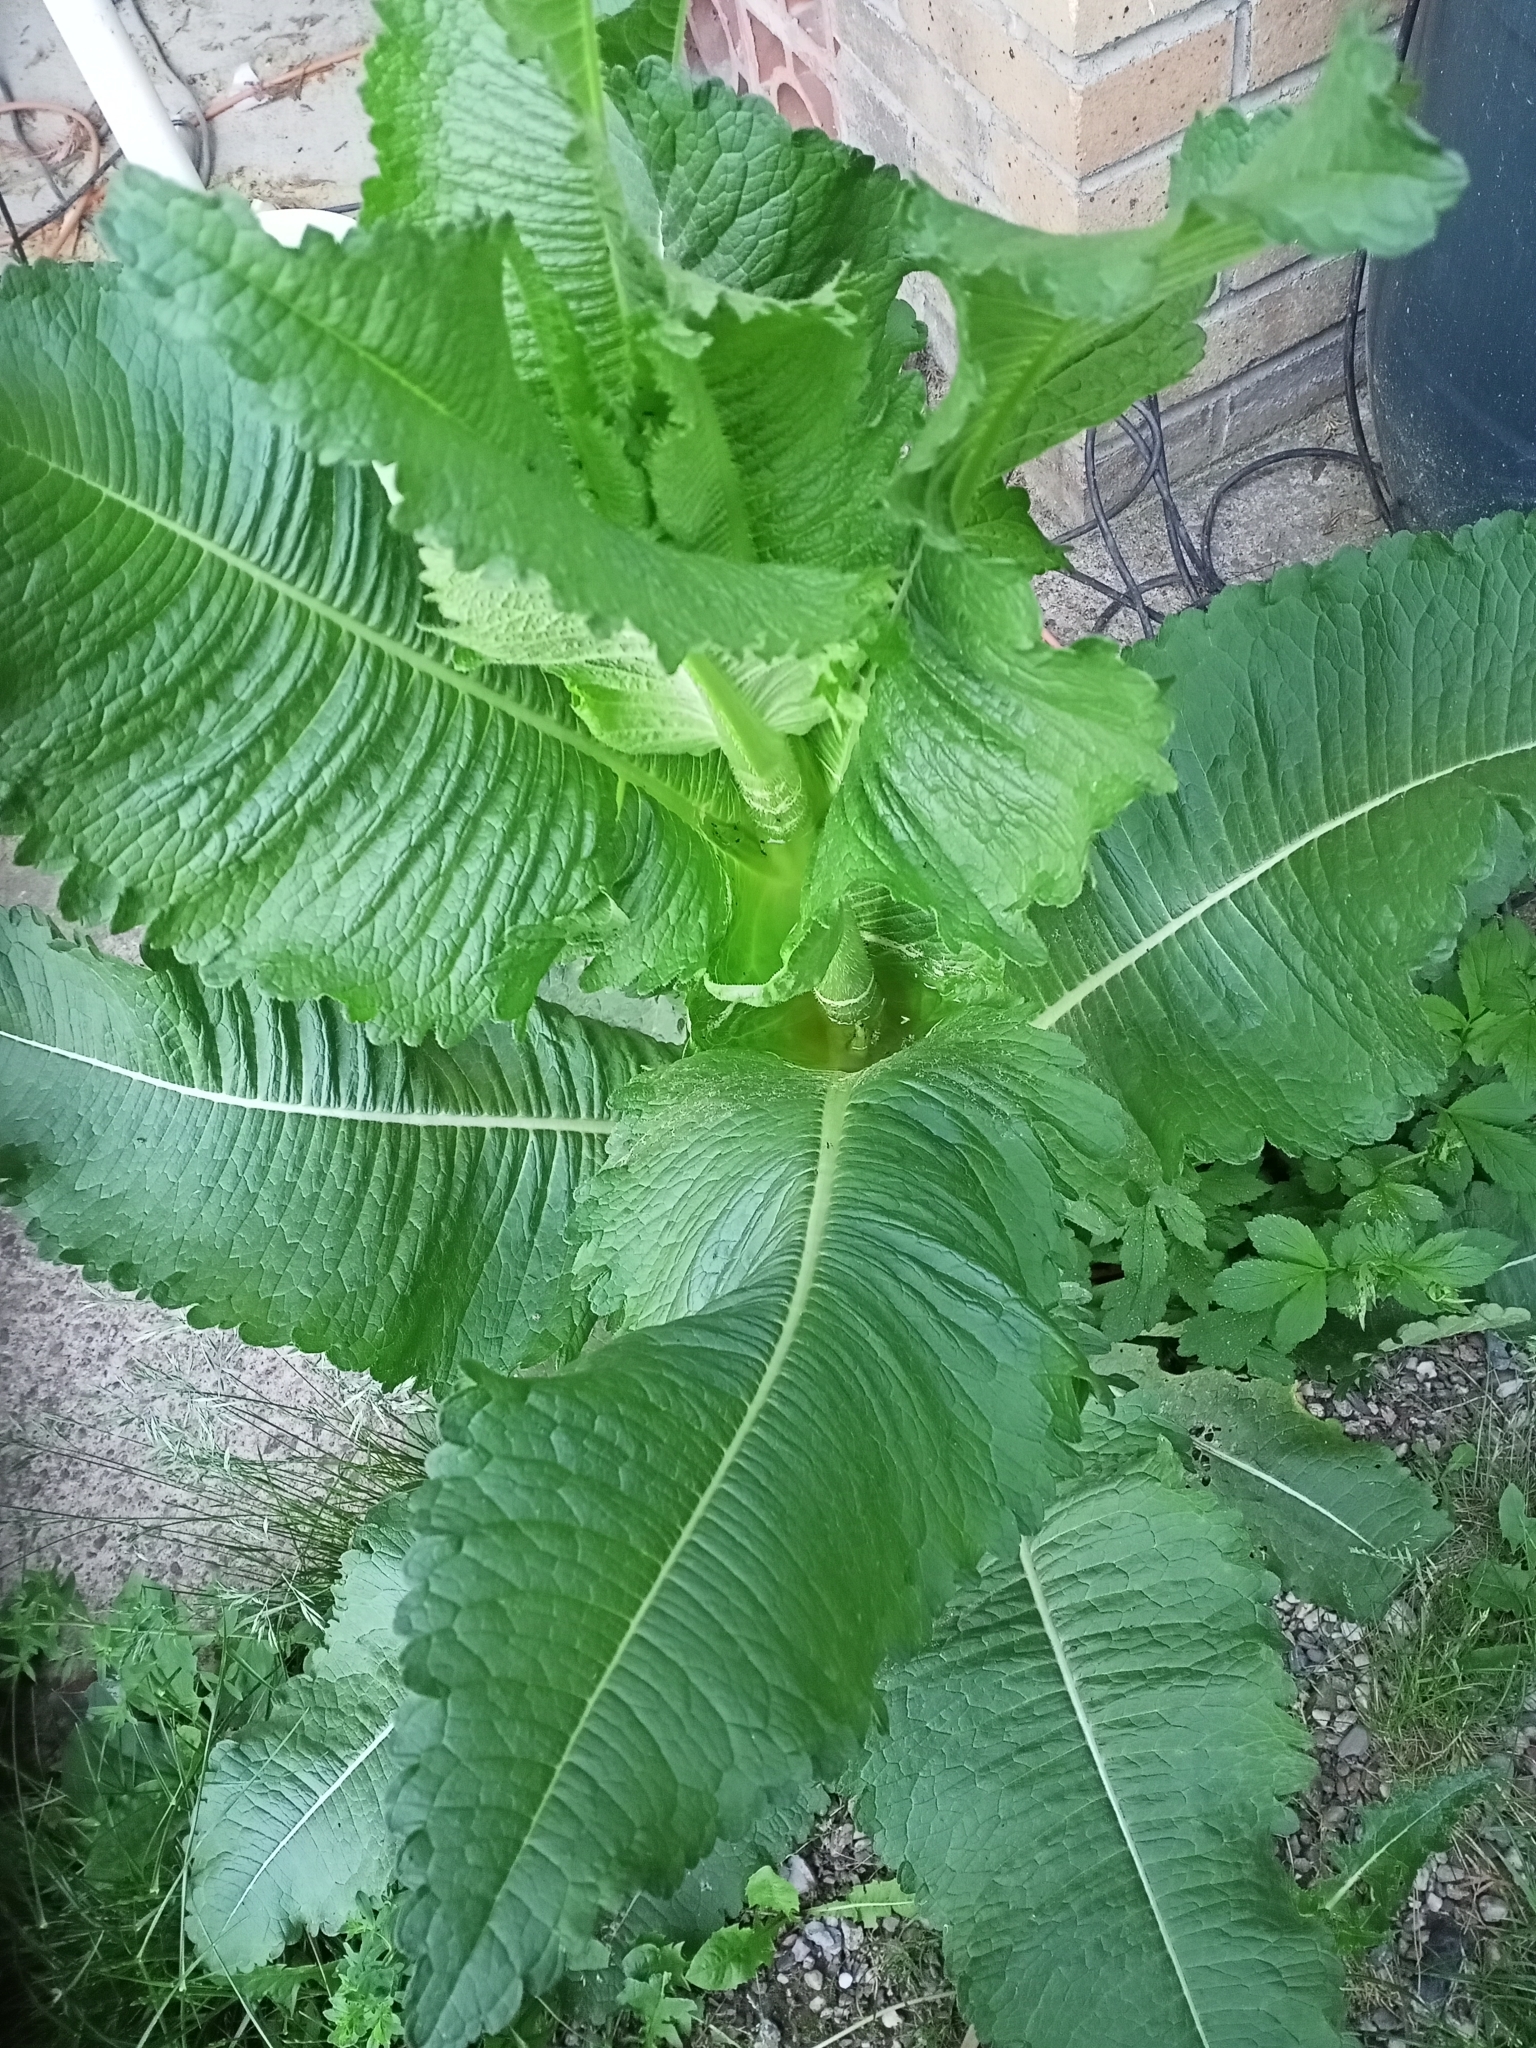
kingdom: Plantae
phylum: Tracheophyta
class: Magnoliopsida
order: Dipsacales
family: Caprifoliaceae
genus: Dipsacus
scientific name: Dipsacus laciniatus
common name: Cut-leaved teasel
